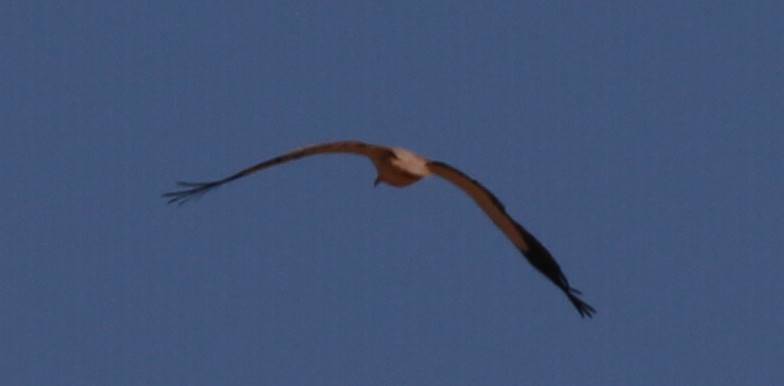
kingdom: Animalia
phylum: Chordata
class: Aves
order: Accipitriformes
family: Accipitridae
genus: Neophron
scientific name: Neophron percnopterus
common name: Egyptian vulture
